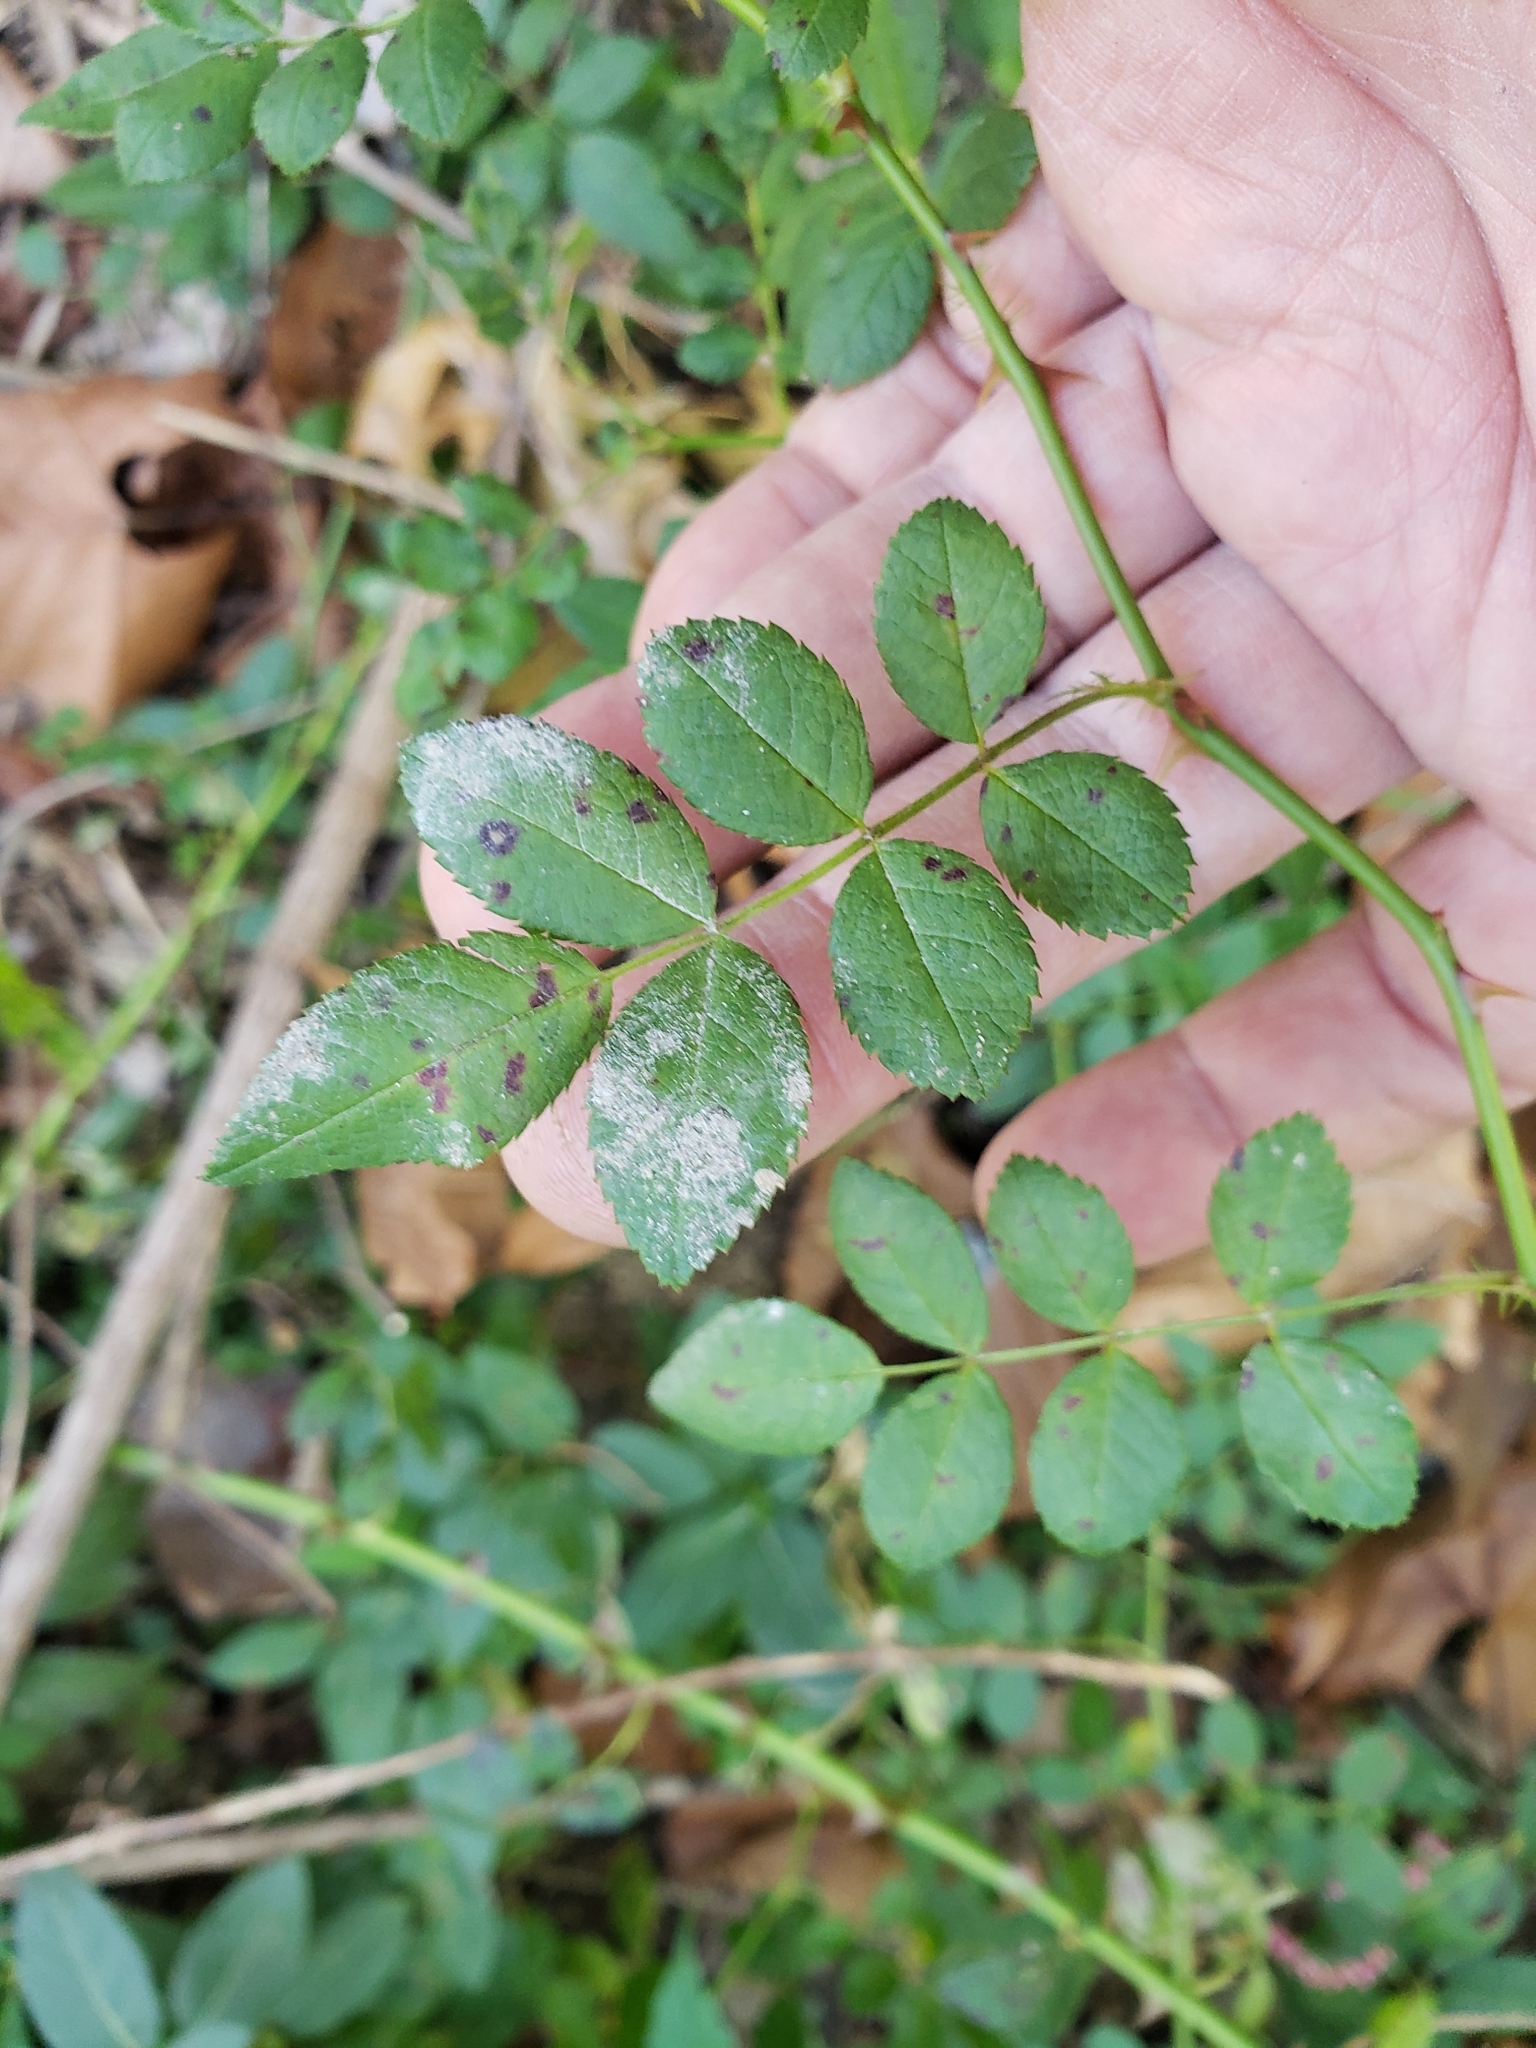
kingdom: Plantae
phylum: Tracheophyta
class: Magnoliopsida
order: Rosales
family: Rosaceae
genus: Rosa
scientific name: Rosa multiflora
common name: Multiflora rose
